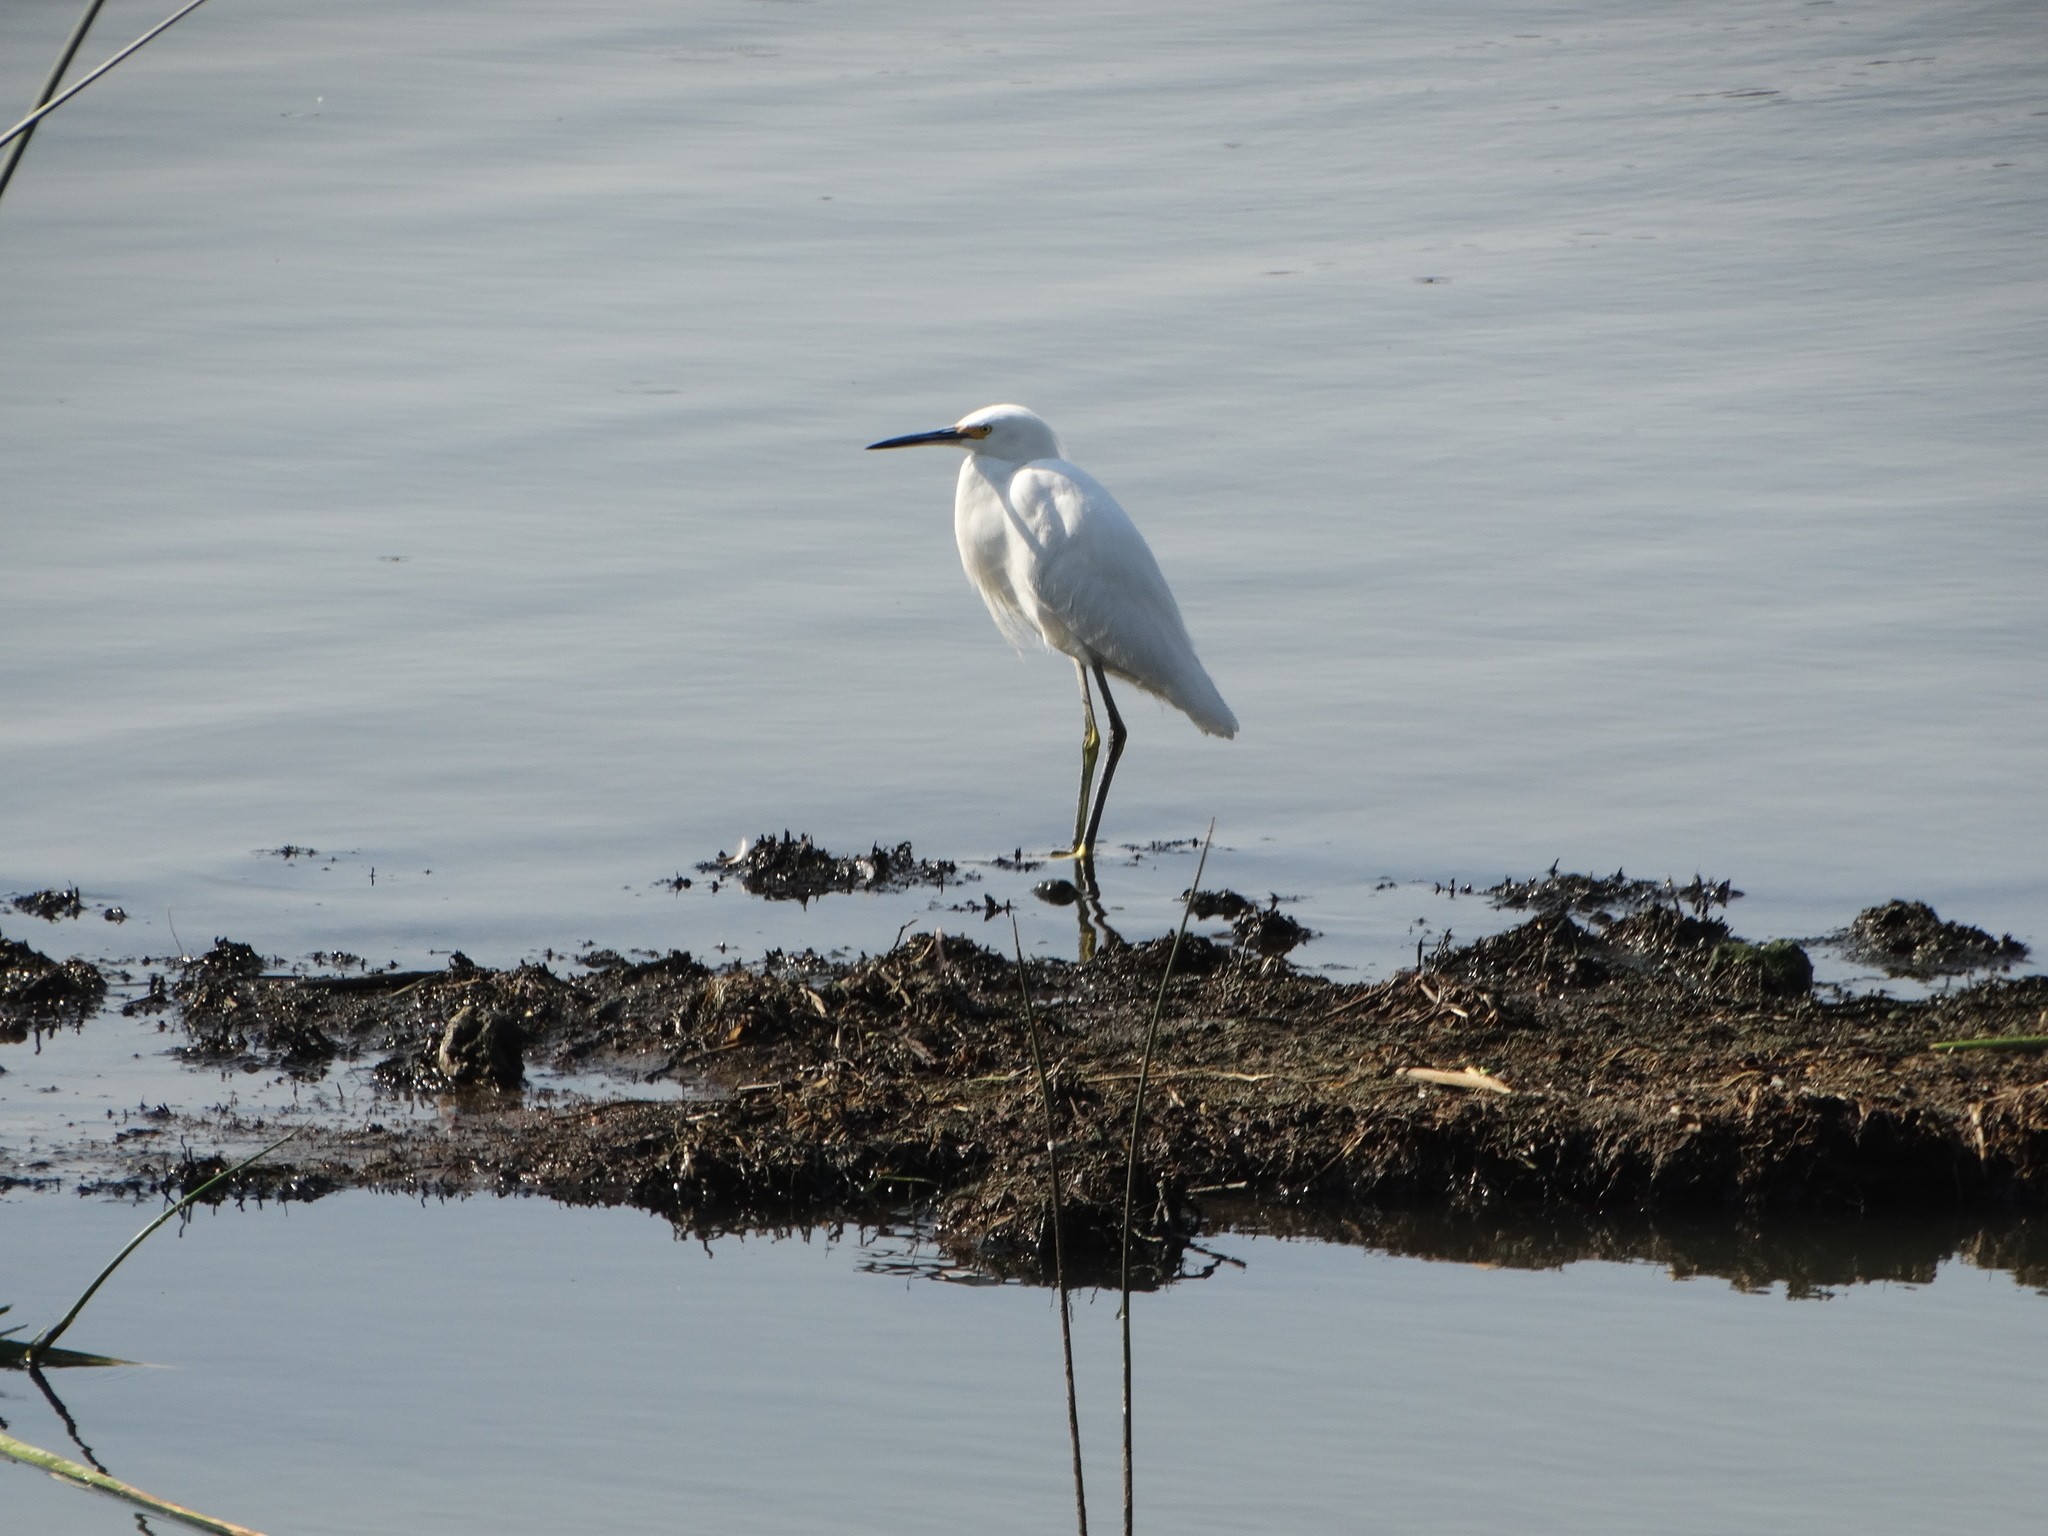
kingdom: Animalia
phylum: Chordata
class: Aves
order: Pelecaniformes
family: Ardeidae
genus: Egretta
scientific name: Egretta thula
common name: Snowy egret
